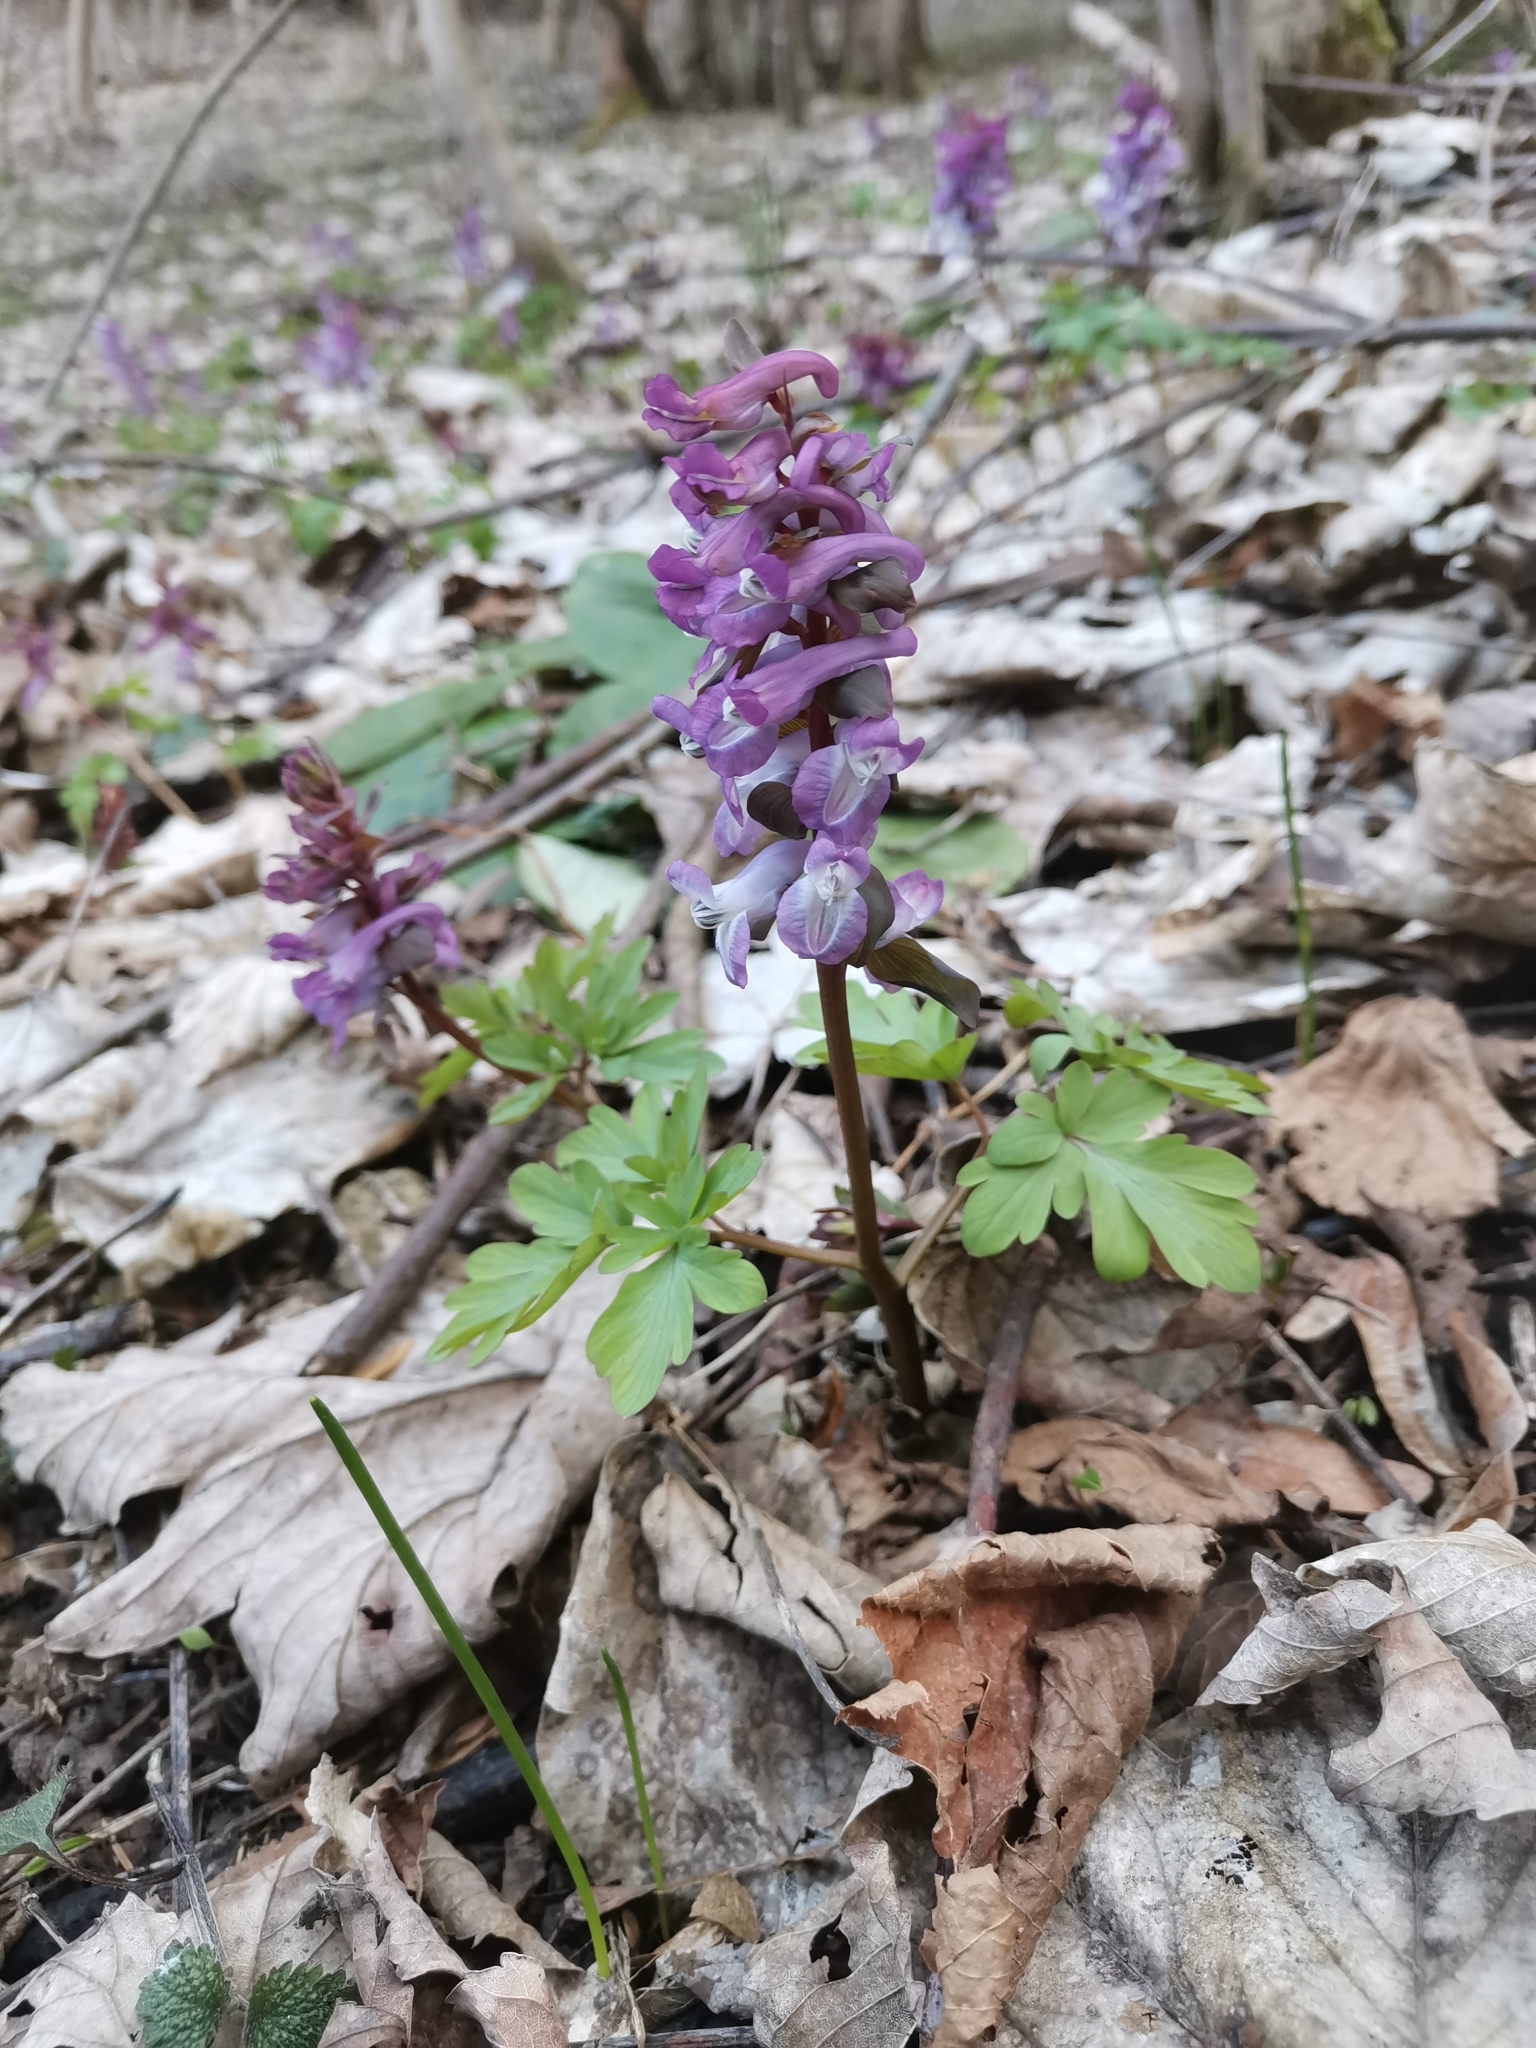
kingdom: Plantae
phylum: Tracheophyta
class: Magnoliopsida
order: Ranunculales
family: Papaveraceae
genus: Corydalis
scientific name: Corydalis cava
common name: Hollowroot
